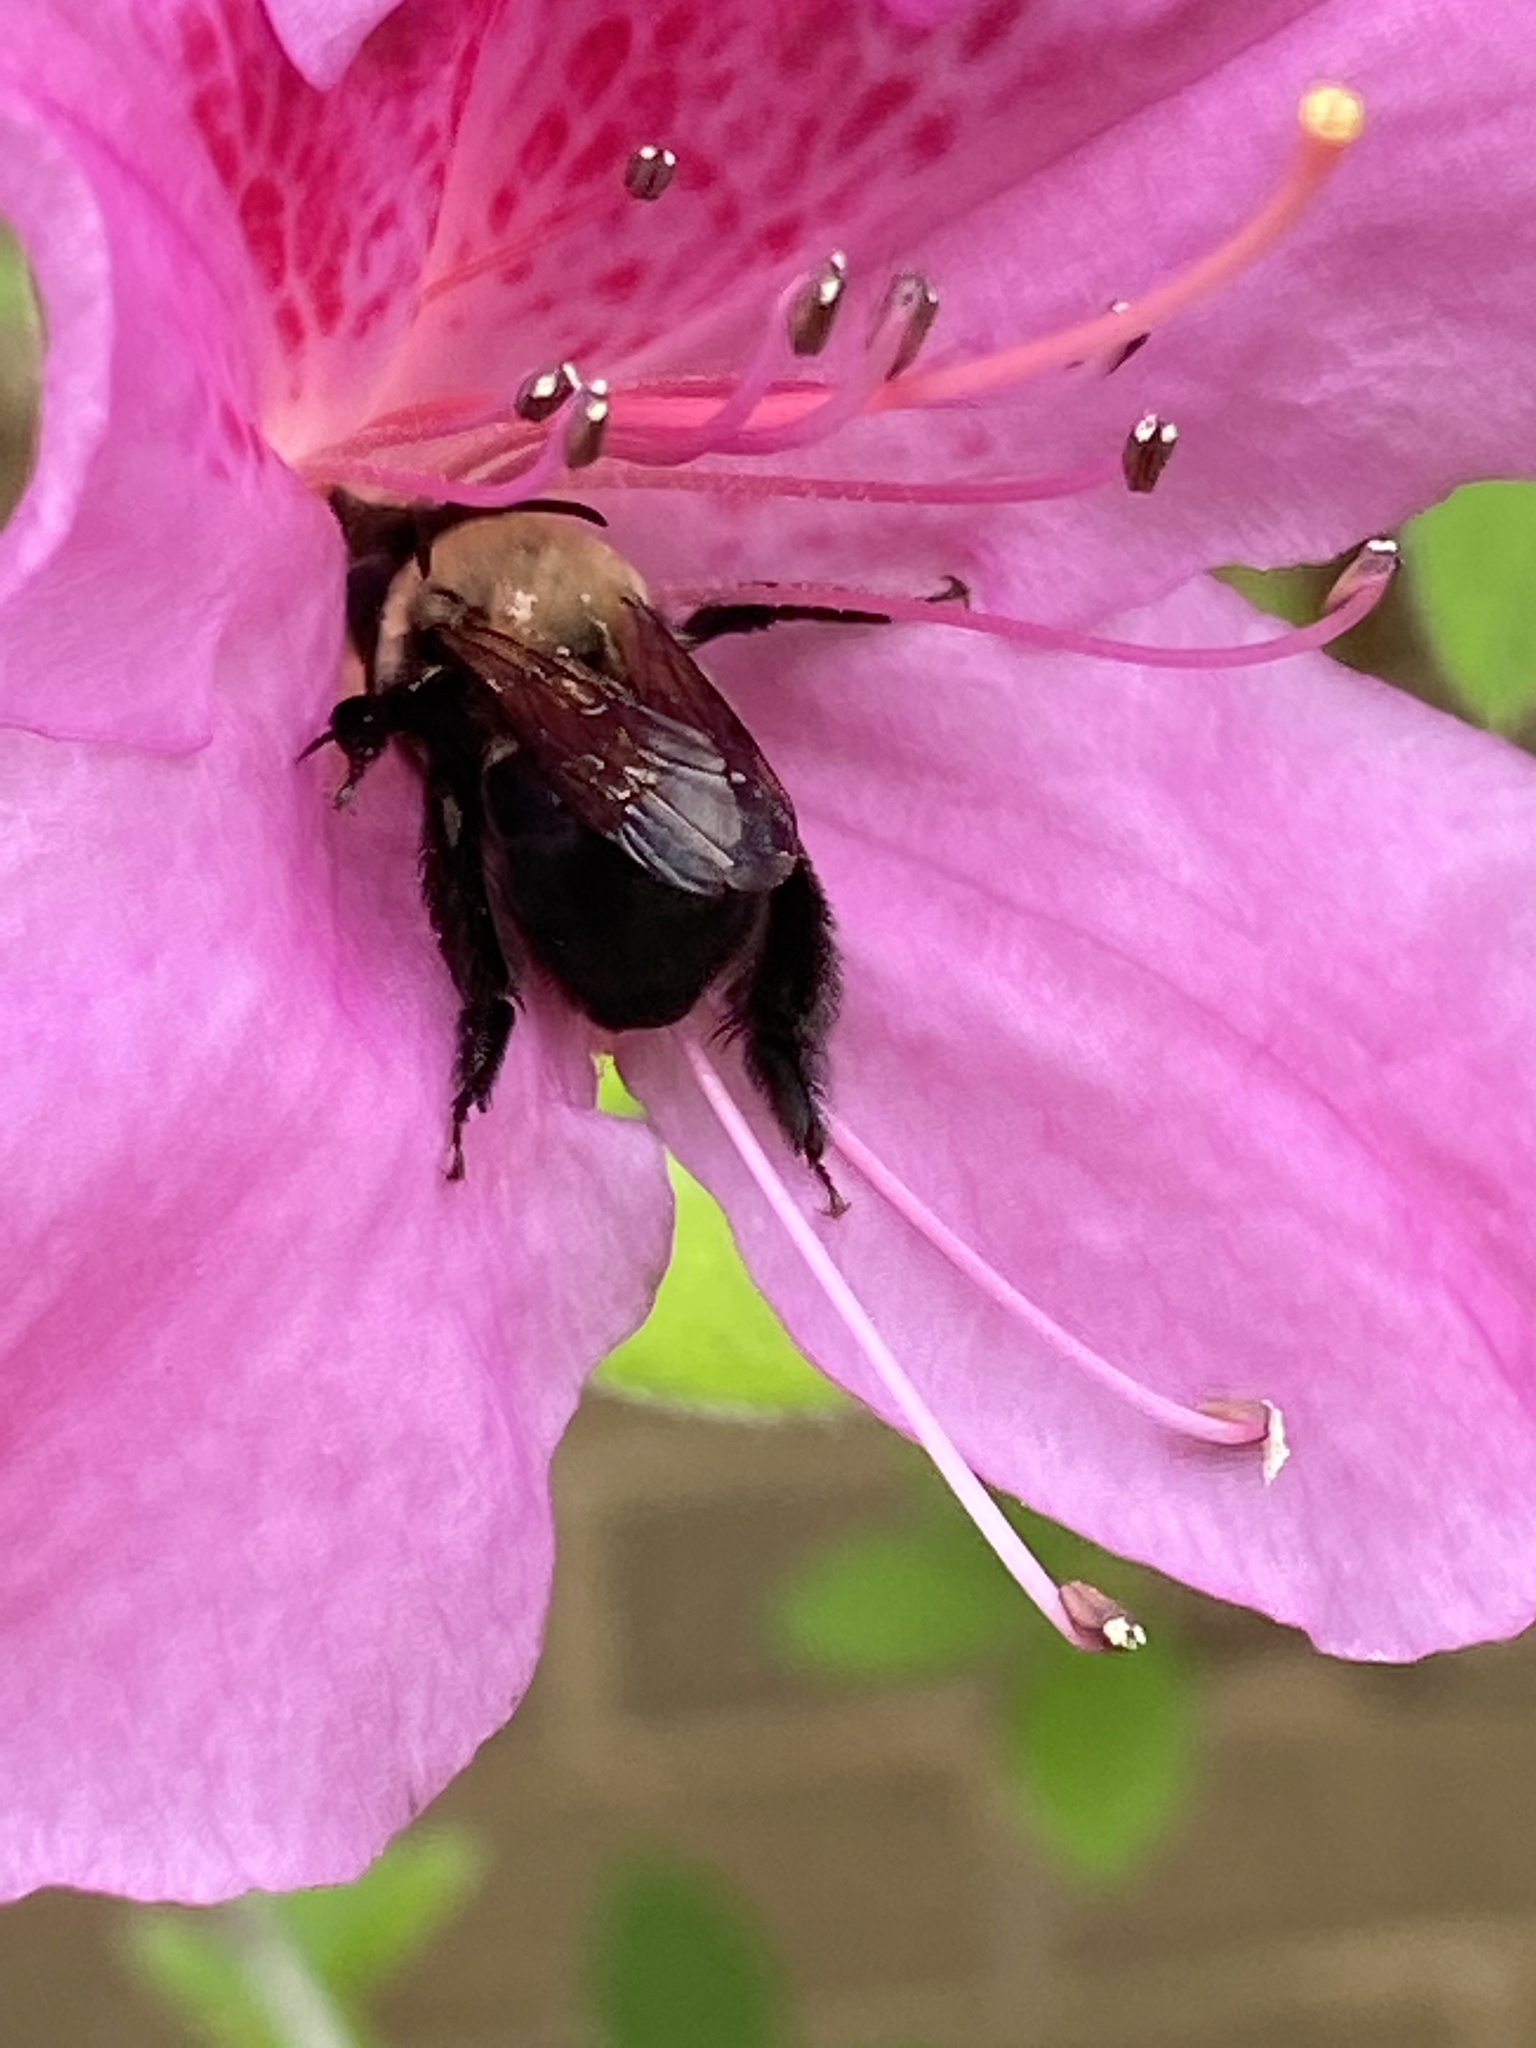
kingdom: Animalia
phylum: Arthropoda
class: Insecta
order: Hymenoptera
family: Apidae
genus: Habropoda
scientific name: Habropoda laboriosa
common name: Southeastern blueberry bee
